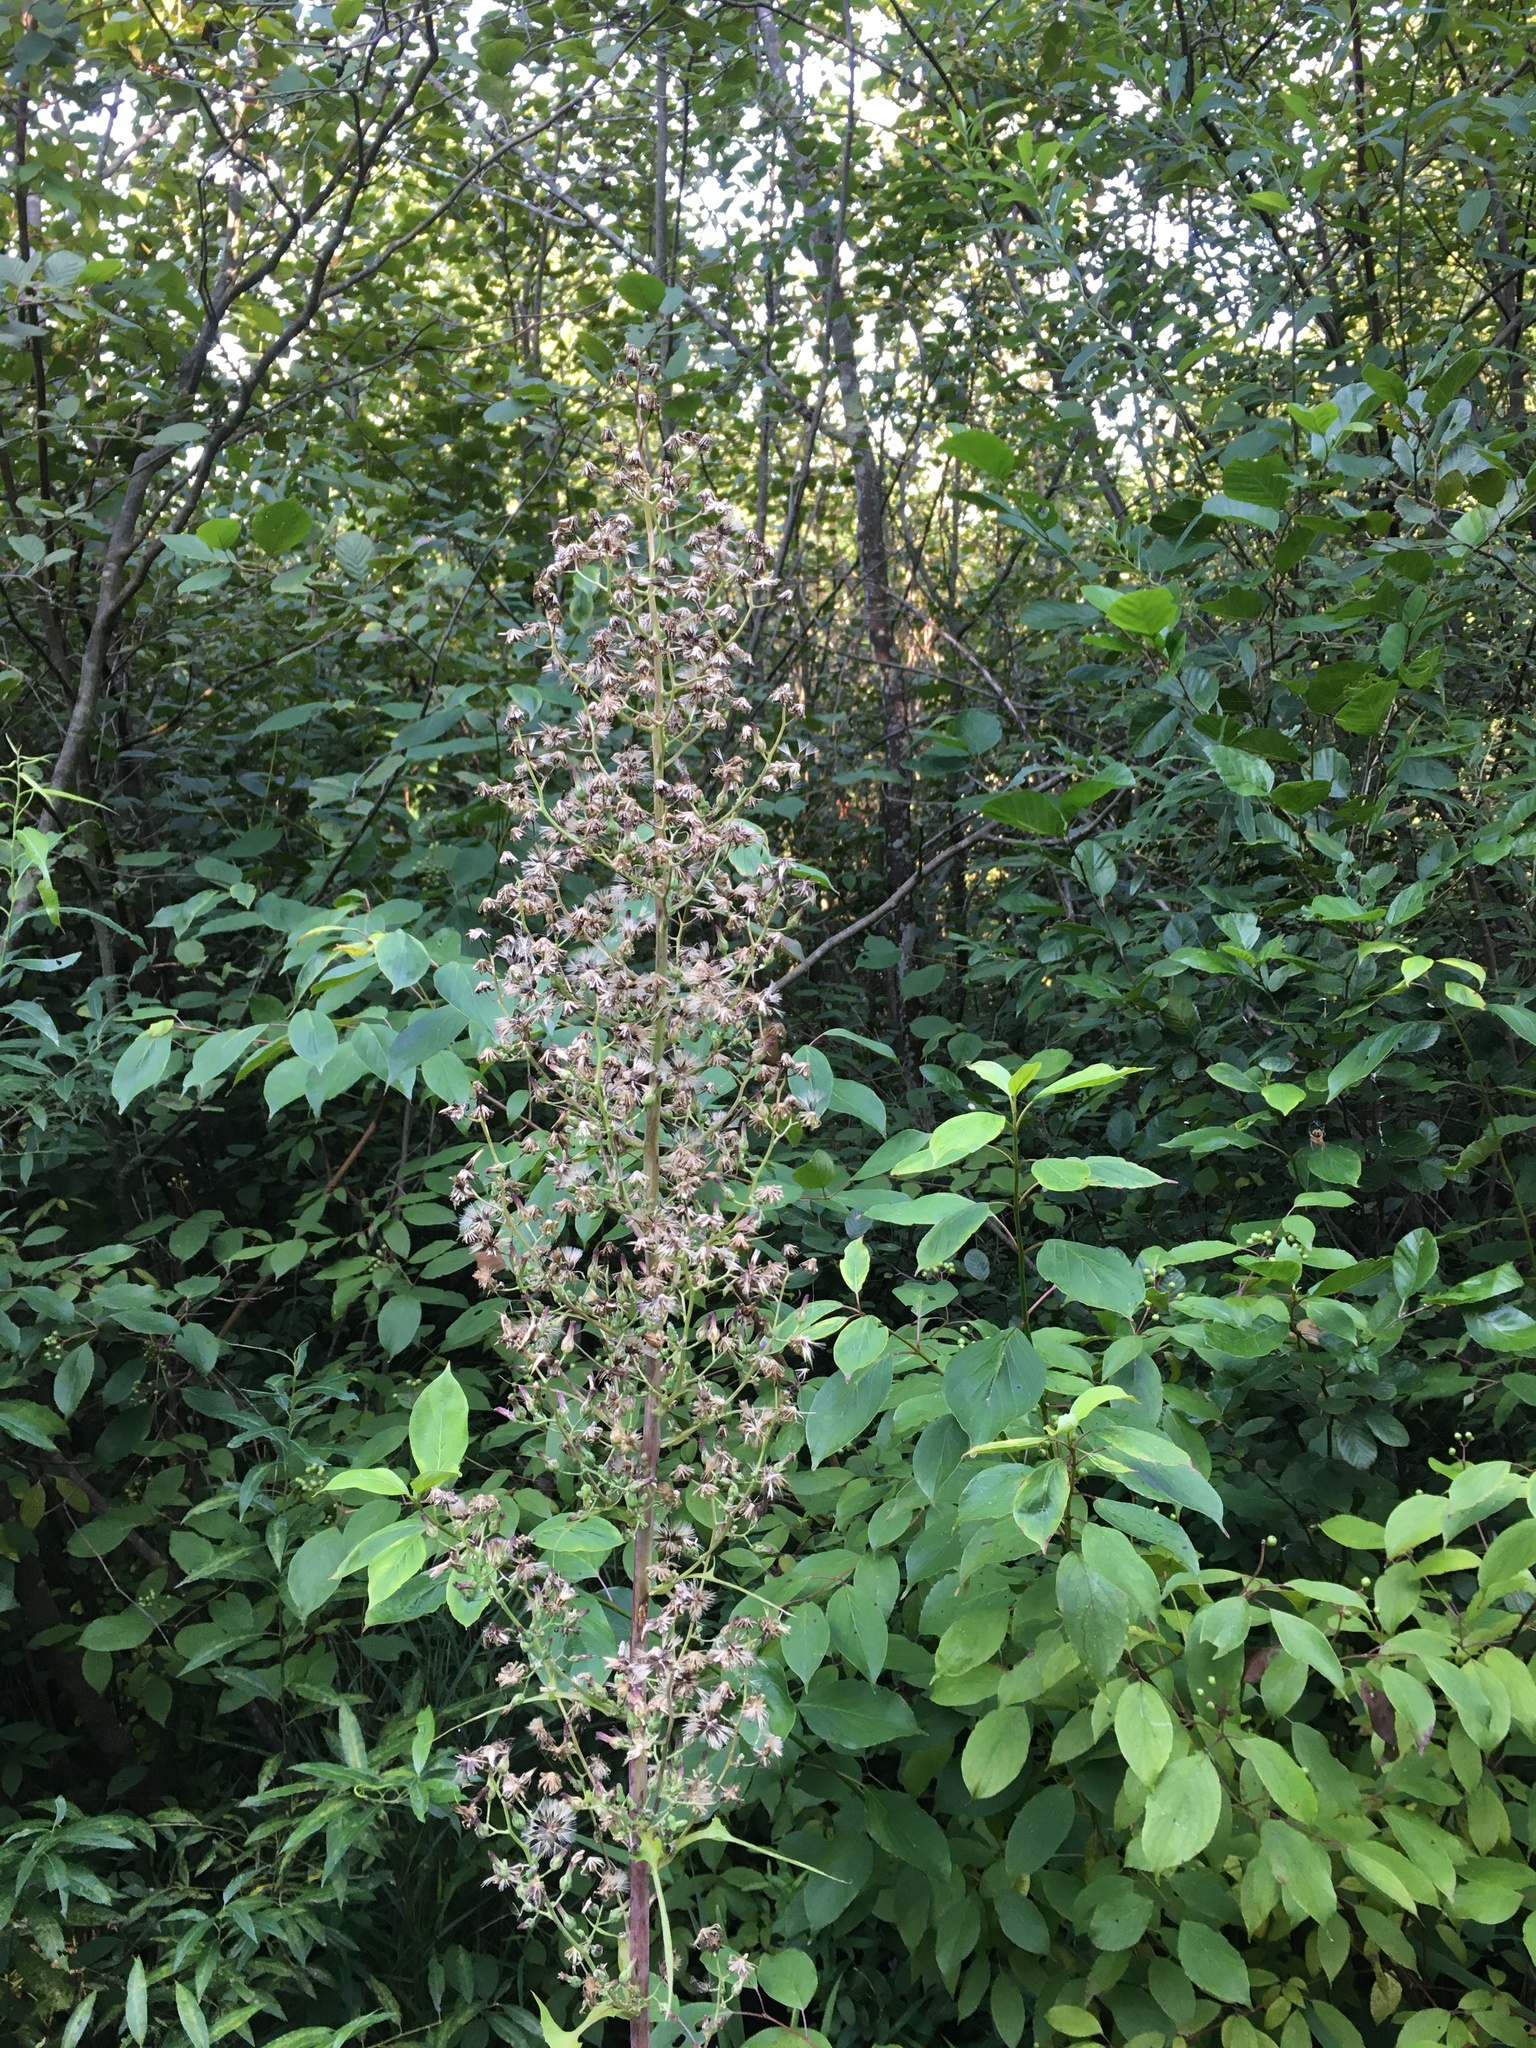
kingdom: Plantae
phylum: Tracheophyta
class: Magnoliopsida
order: Asterales
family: Asteraceae
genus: Lactuca
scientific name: Lactuca biennis
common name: Blue wood lettuce
